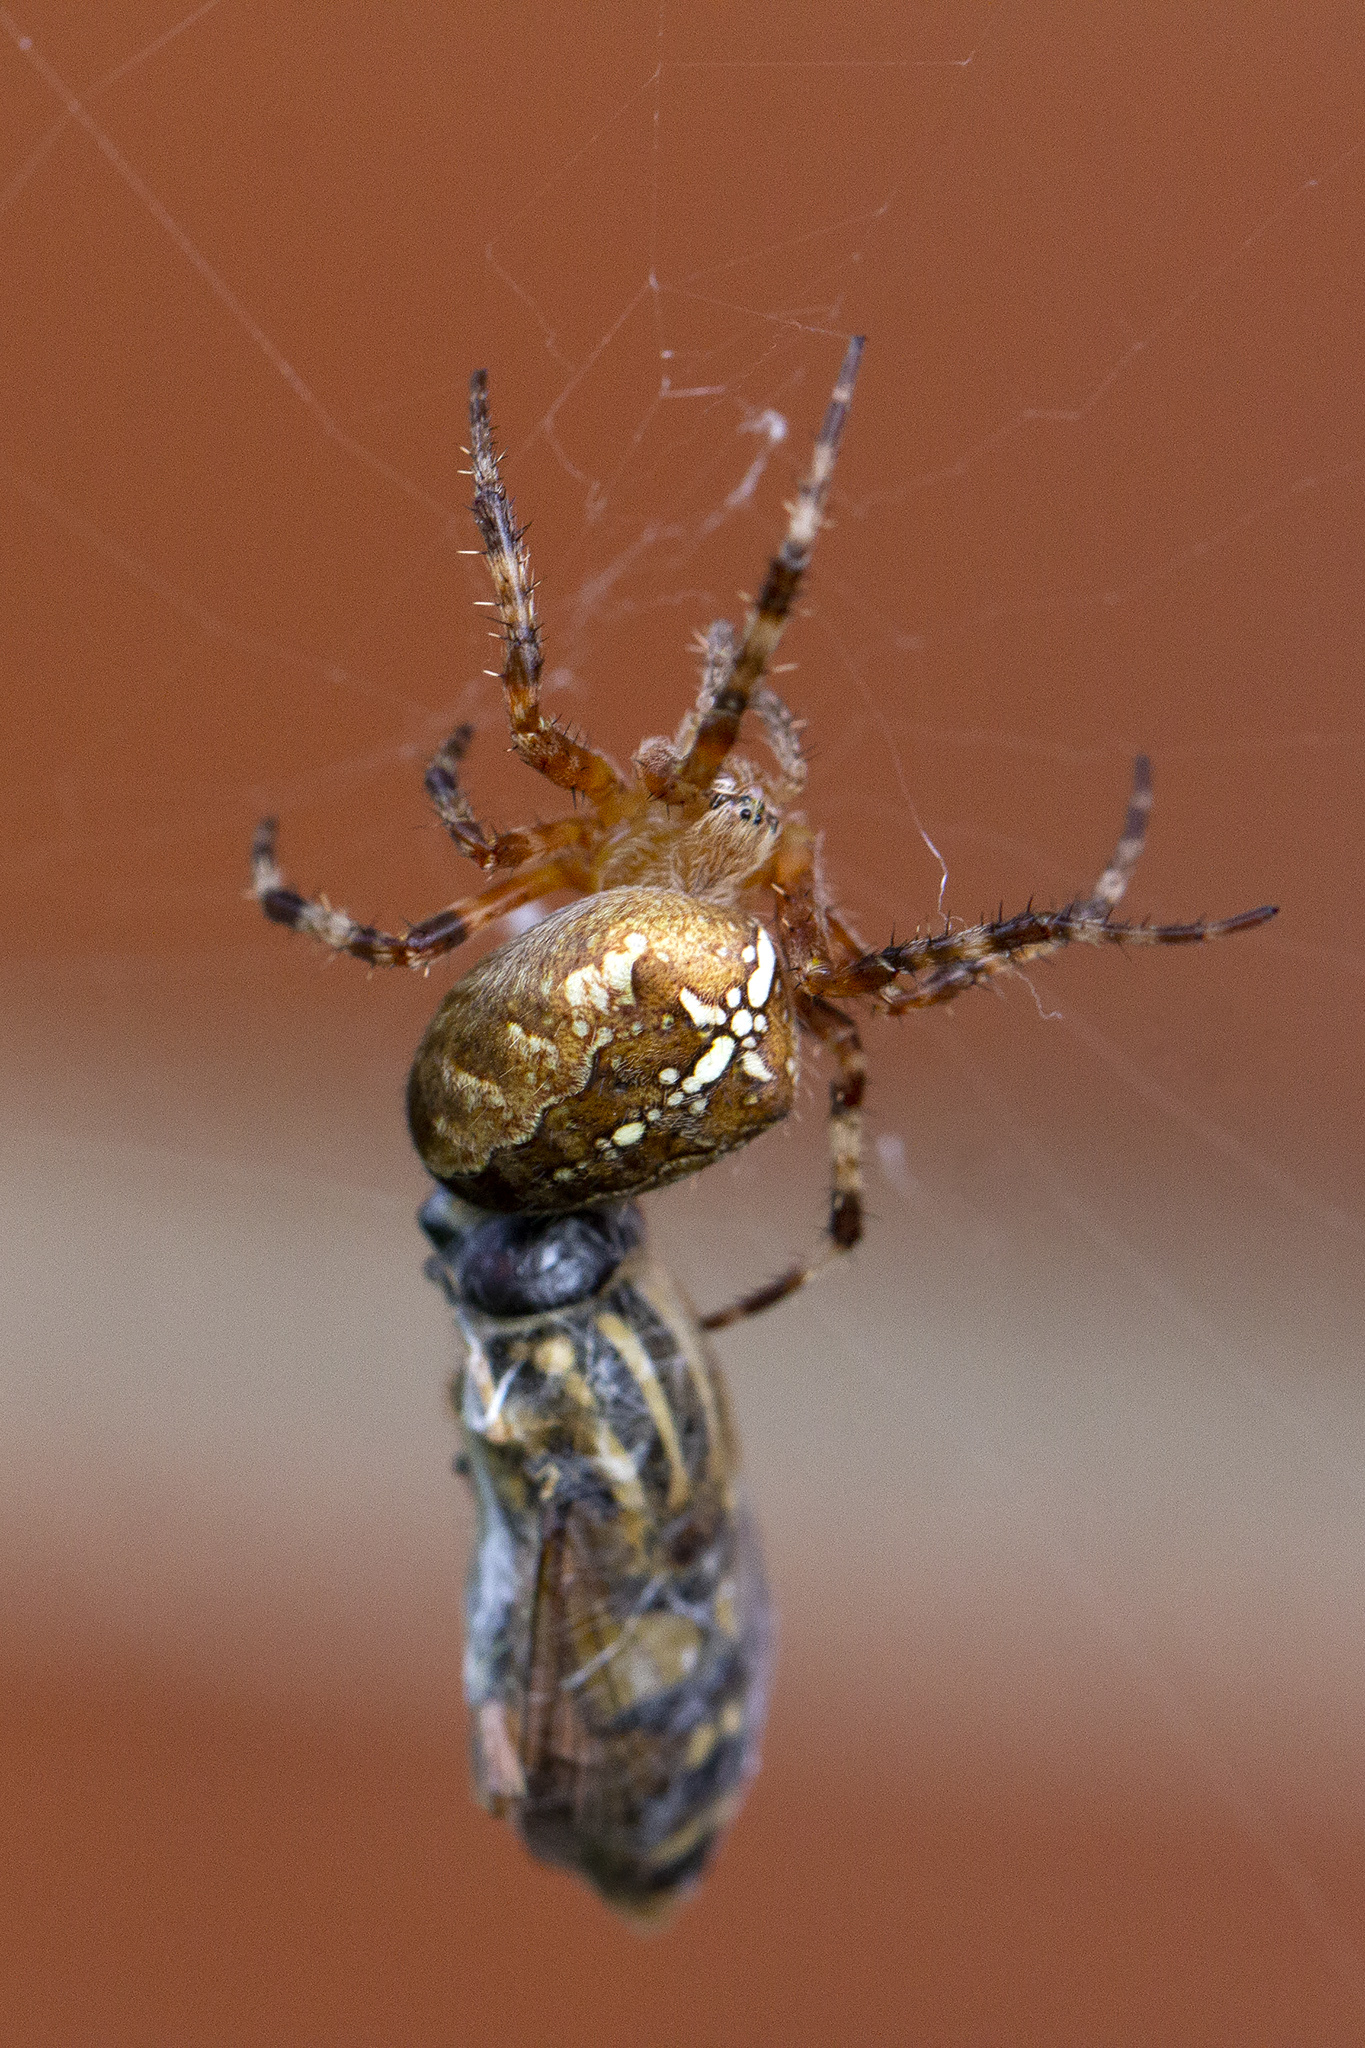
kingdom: Animalia
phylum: Arthropoda
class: Arachnida
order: Araneae
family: Araneidae
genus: Araneus
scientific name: Araneus diadematus
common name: Cross orbweaver
